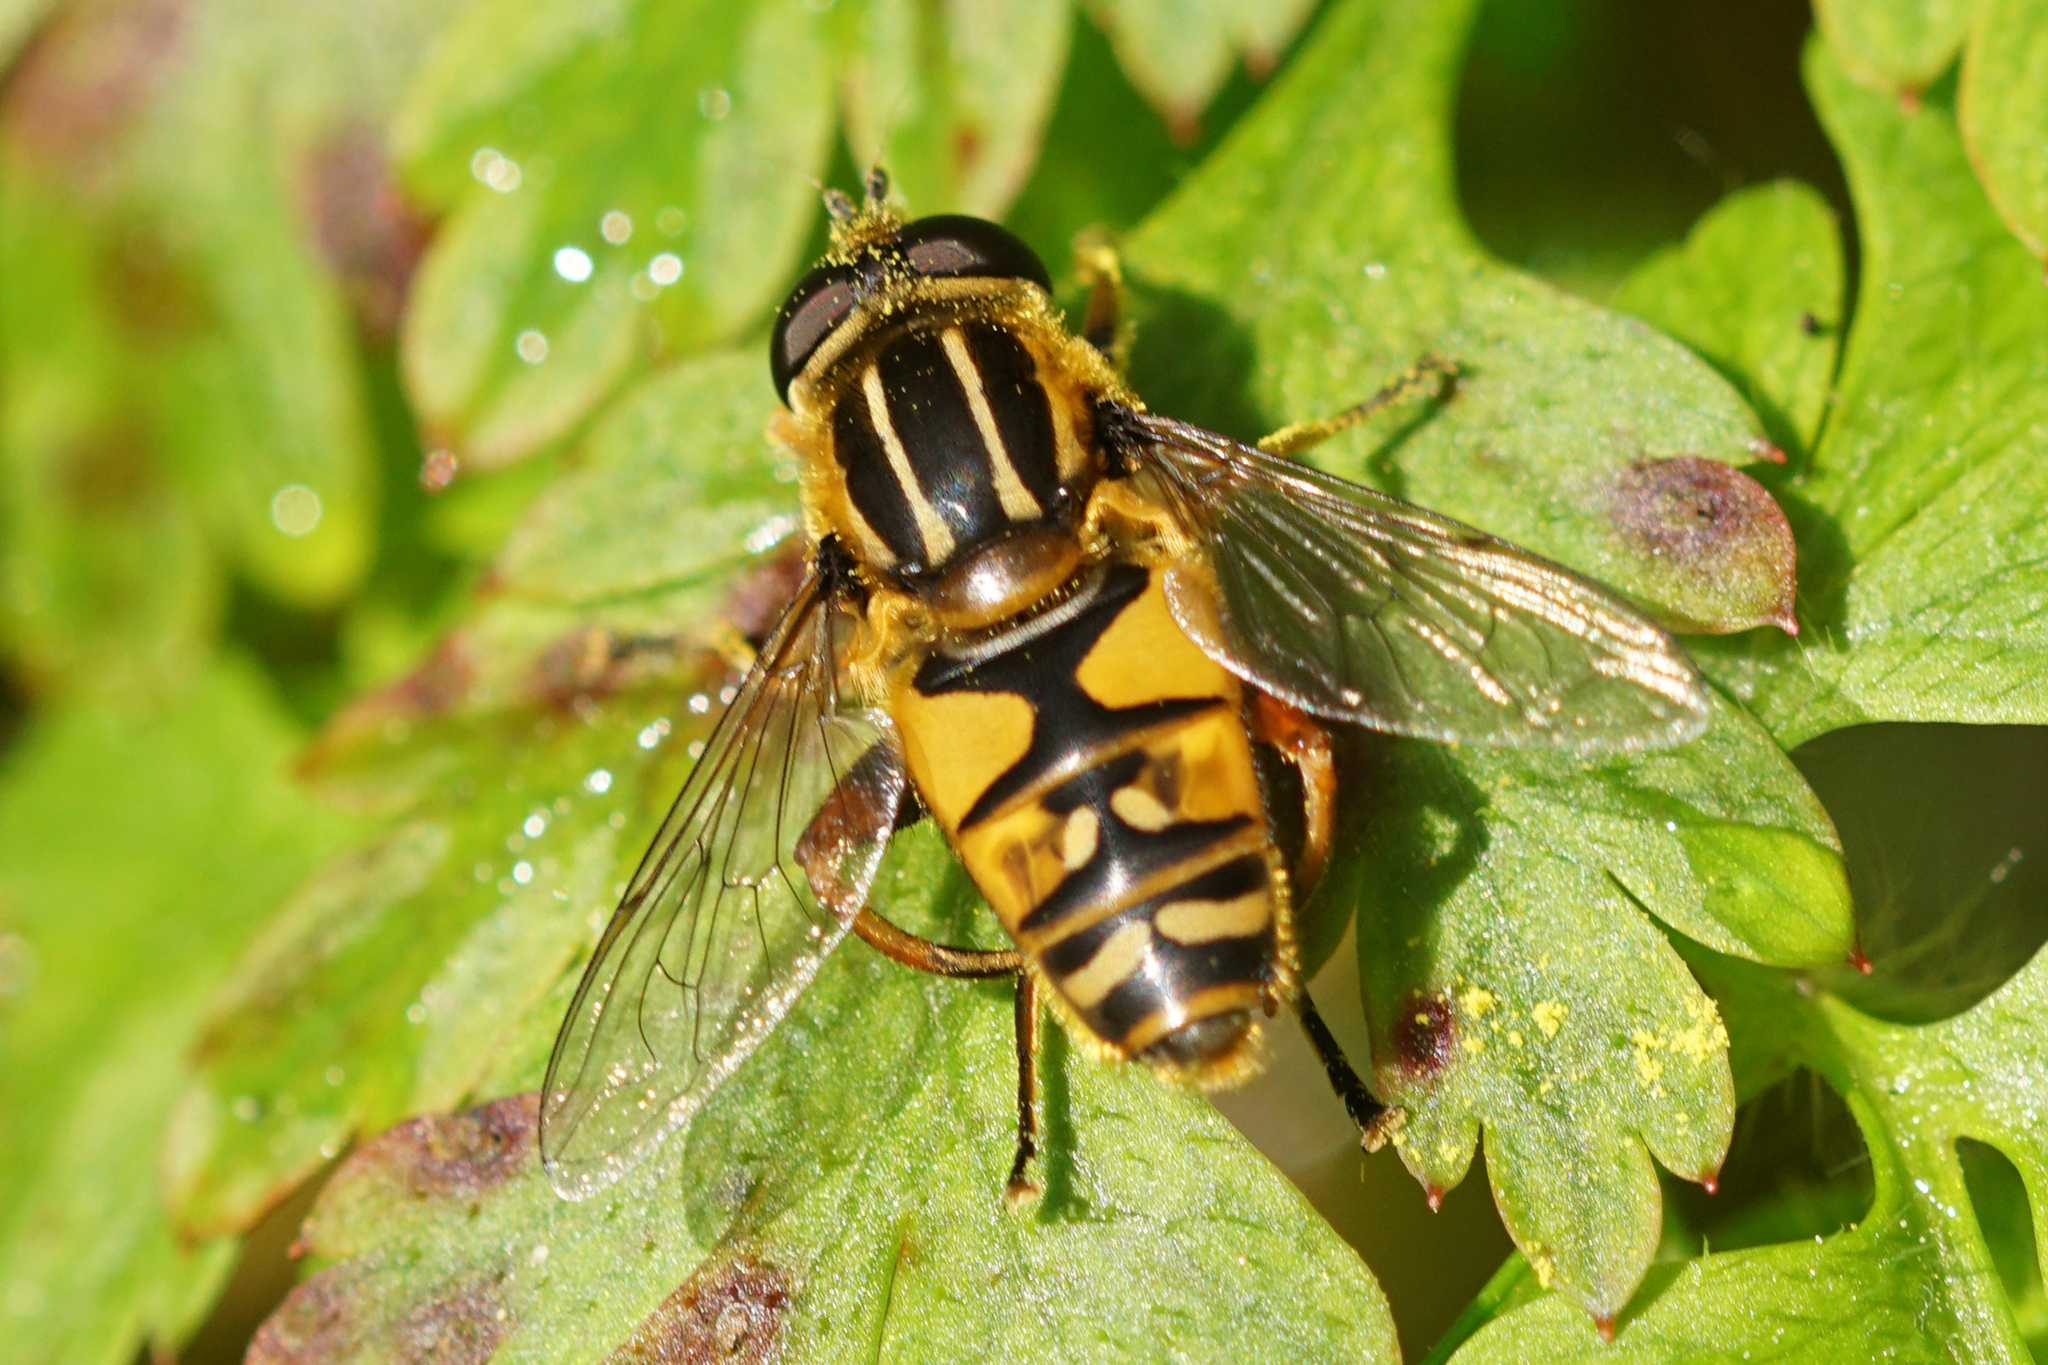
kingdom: Animalia
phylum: Arthropoda
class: Insecta
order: Diptera
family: Syrphidae
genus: Helophilus
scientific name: Helophilus pendulus
